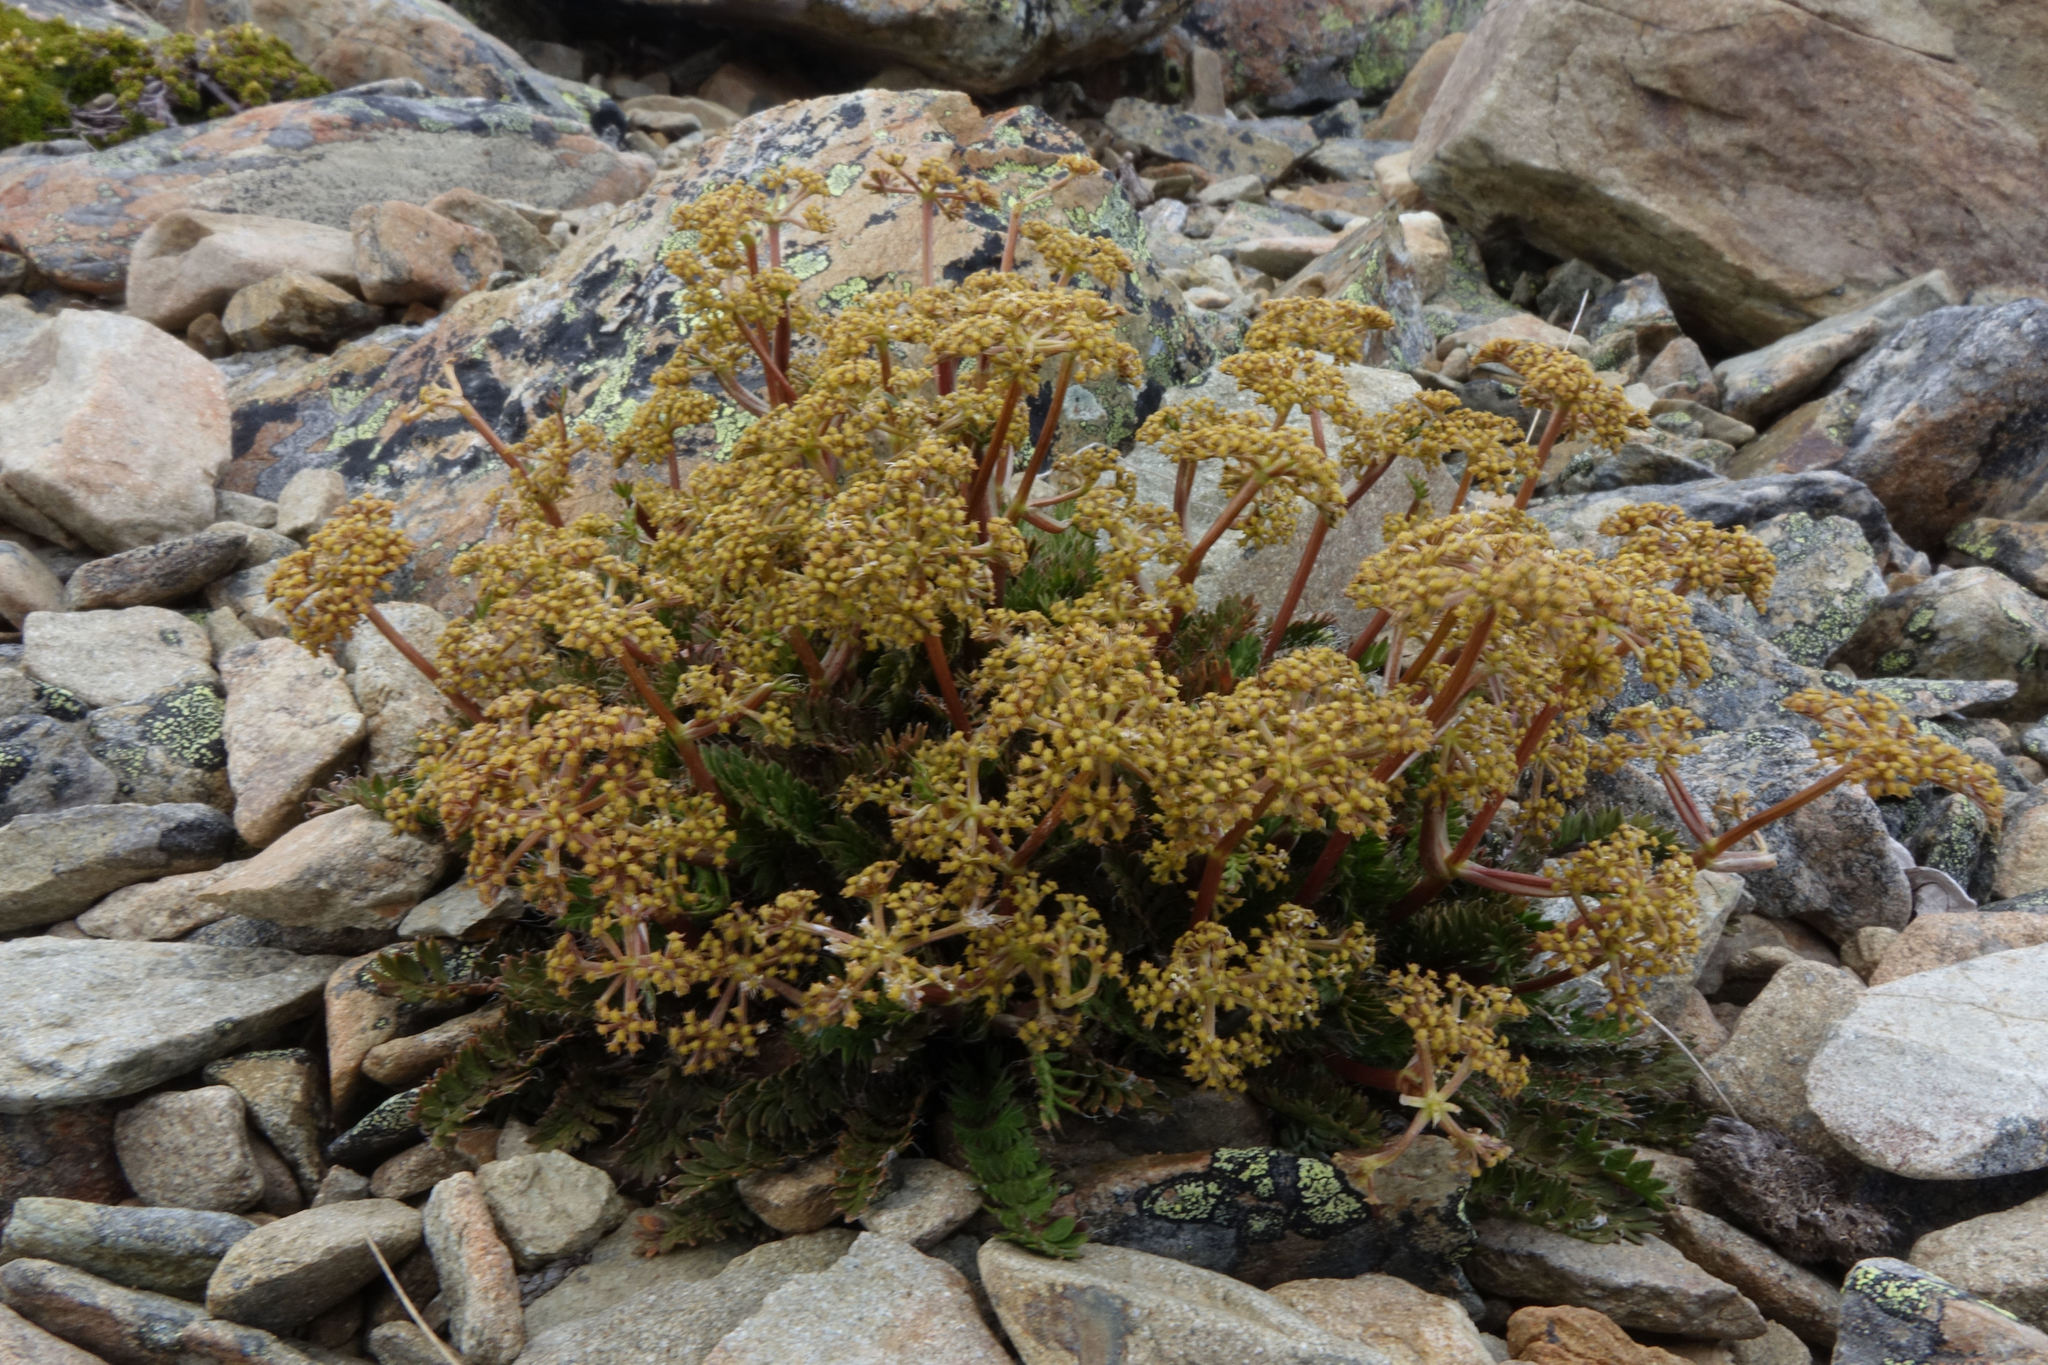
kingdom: Plantae
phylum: Tracheophyta
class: Magnoliopsida
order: Apiales
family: Apiaceae
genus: Anisotome
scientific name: Anisotome aromatica
